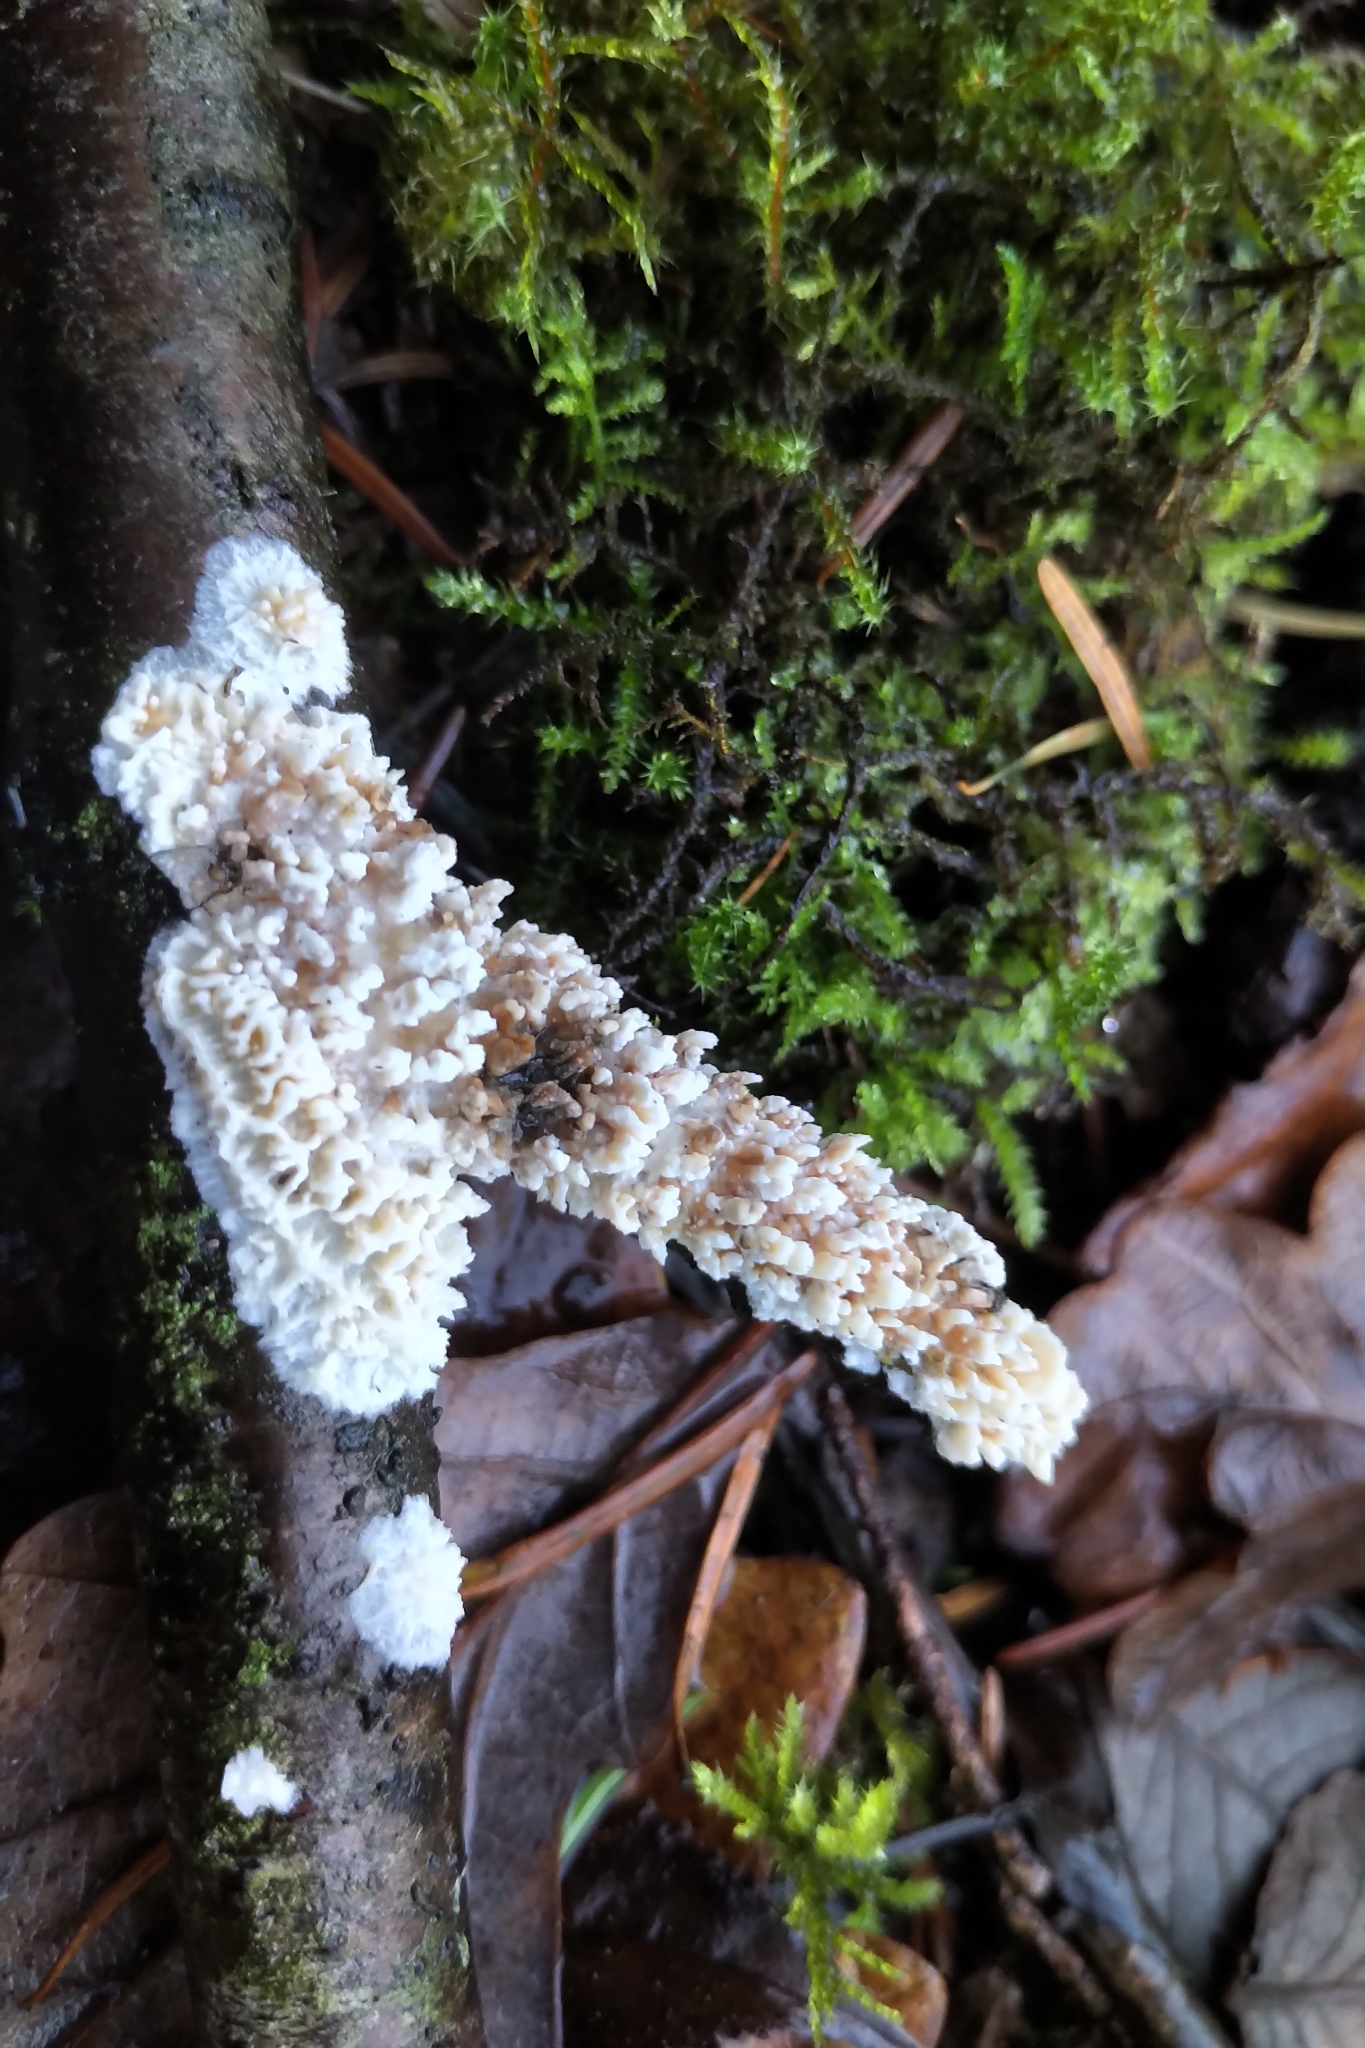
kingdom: Fungi
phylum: Basidiomycota
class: Agaricomycetes
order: Hymenochaetales
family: Schizoporaceae
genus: Xylodon
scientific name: Xylodon radula
